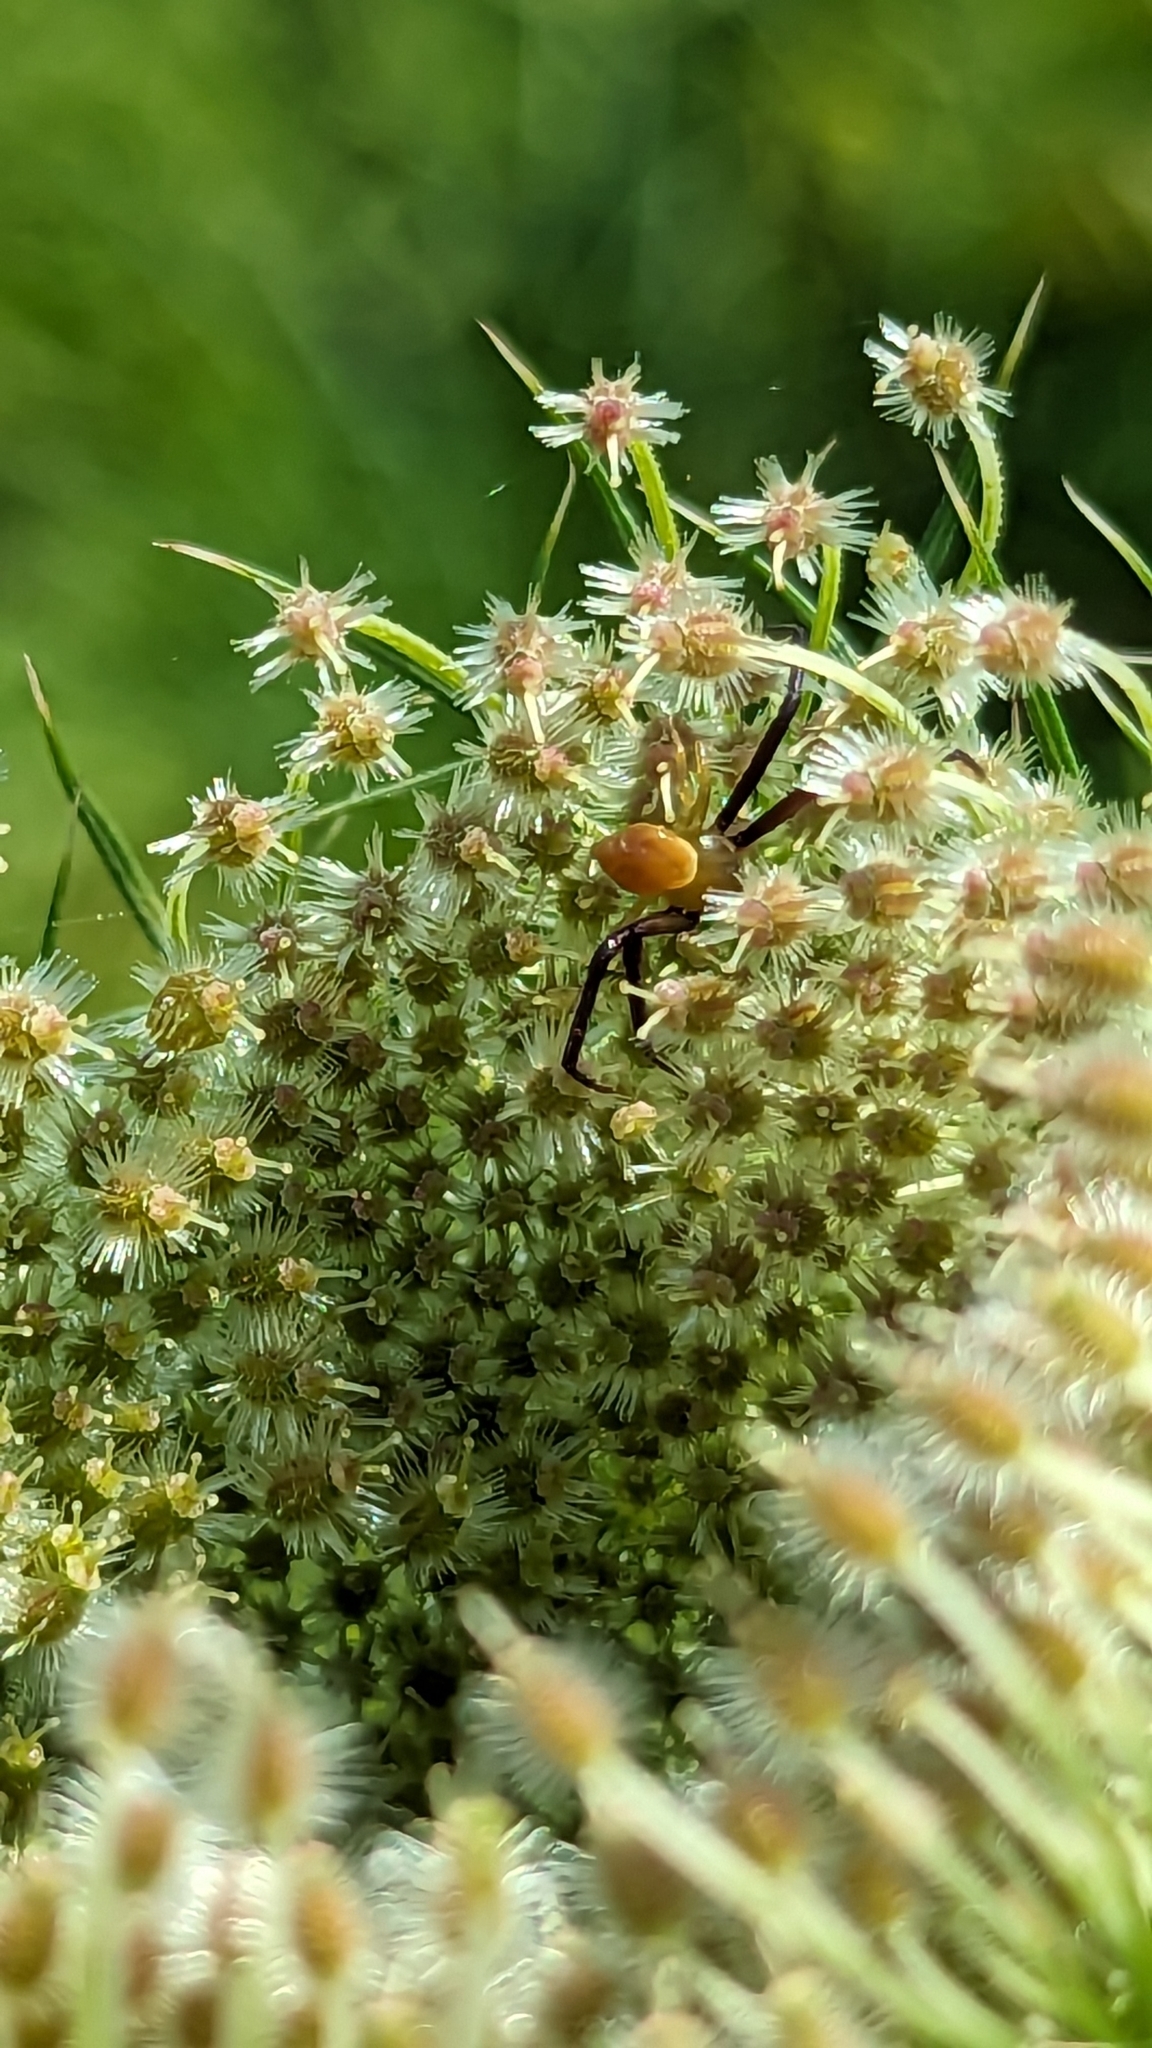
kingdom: Animalia
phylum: Arthropoda
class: Arachnida
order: Araneae
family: Thomisidae
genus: Misumenoides
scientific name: Misumenoides formosipes
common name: White-banded crab spider
